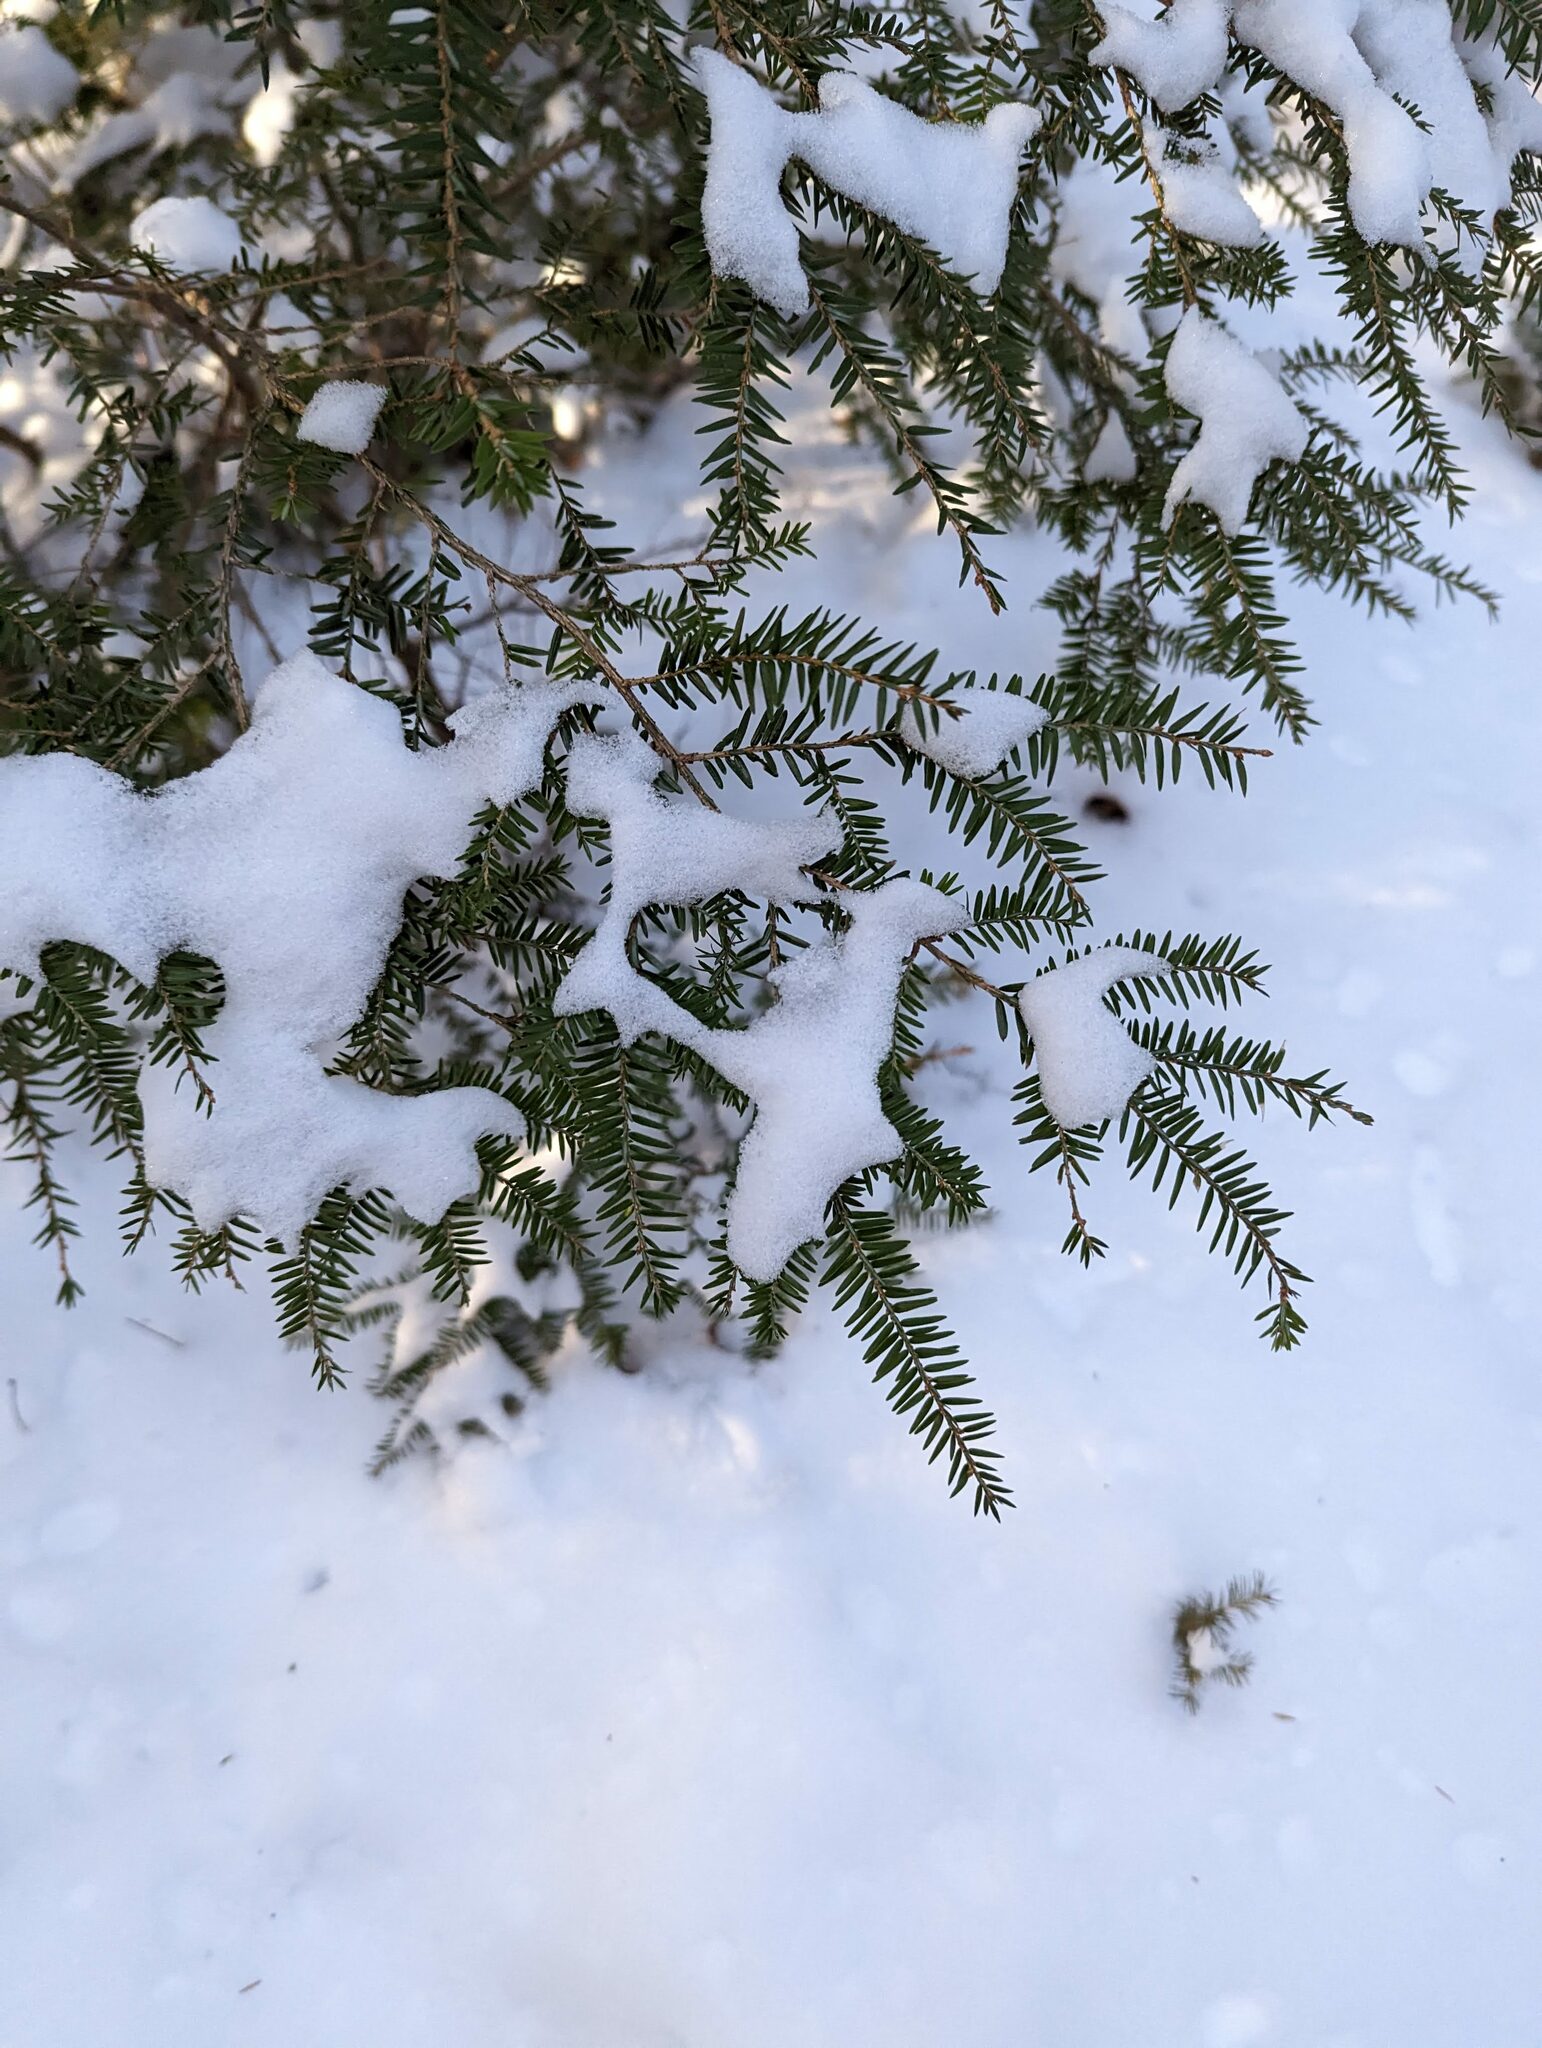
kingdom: Plantae
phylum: Tracheophyta
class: Pinopsida
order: Pinales
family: Pinaceae
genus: Tsuga
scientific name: Tsuga canadensis
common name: Eastern hemlock
